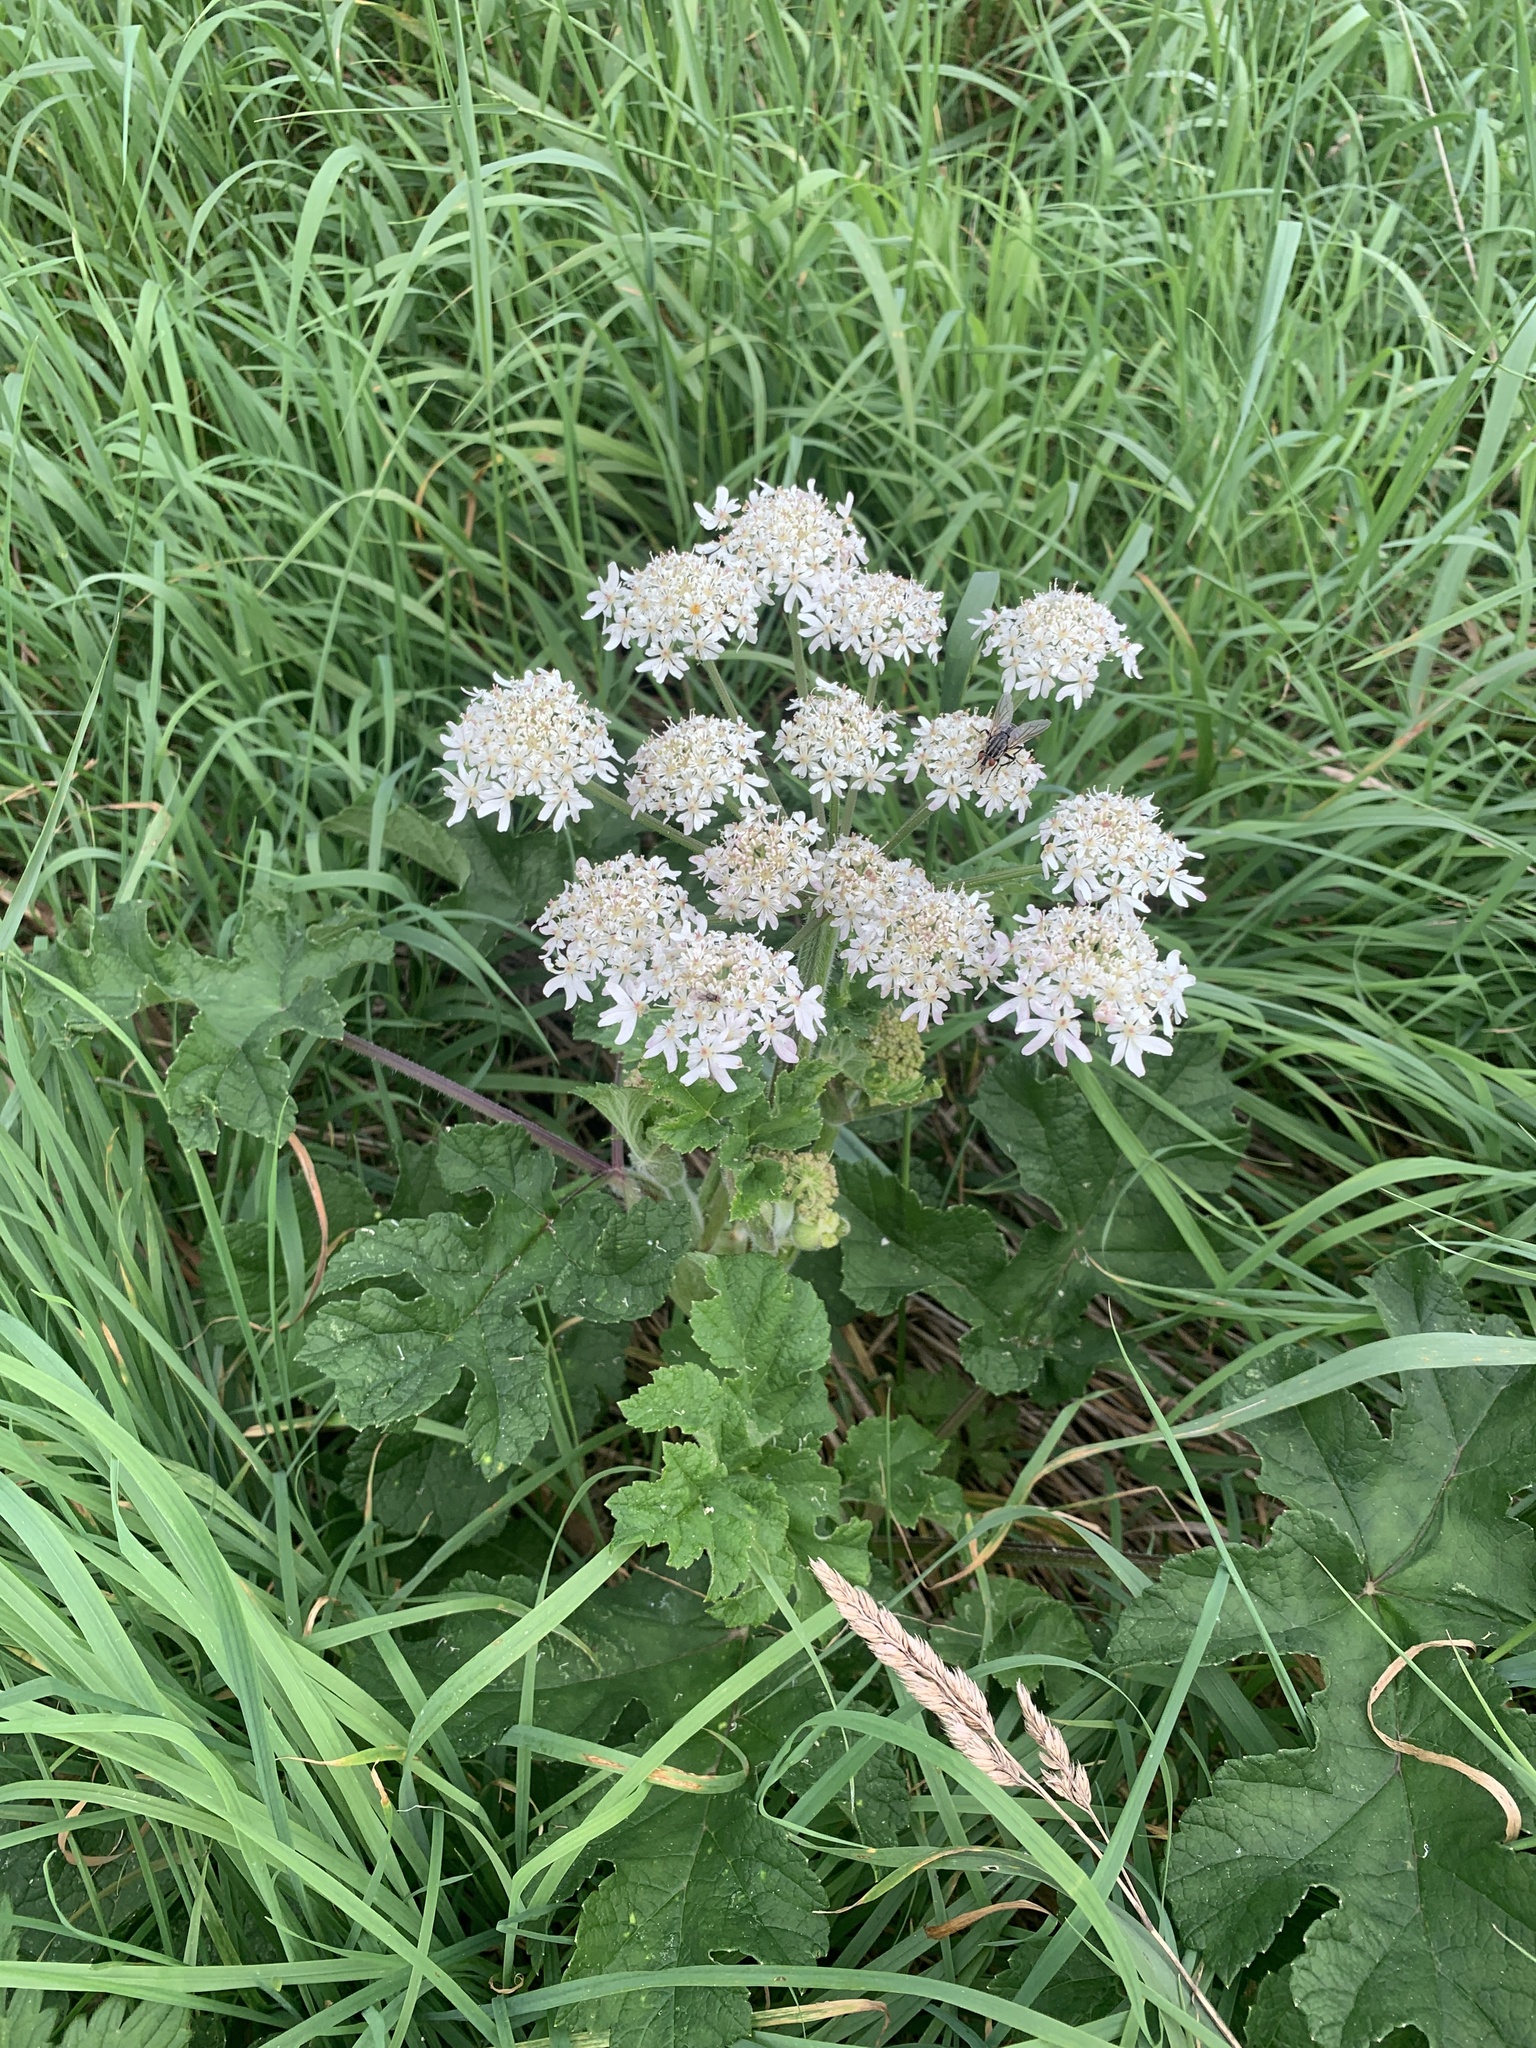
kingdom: Plantae
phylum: Tracheophyta
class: Magnoliopsida
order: Apiales
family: Apiaceae
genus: Heracleum
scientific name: Heracleum sphondylium
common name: Hogweed
